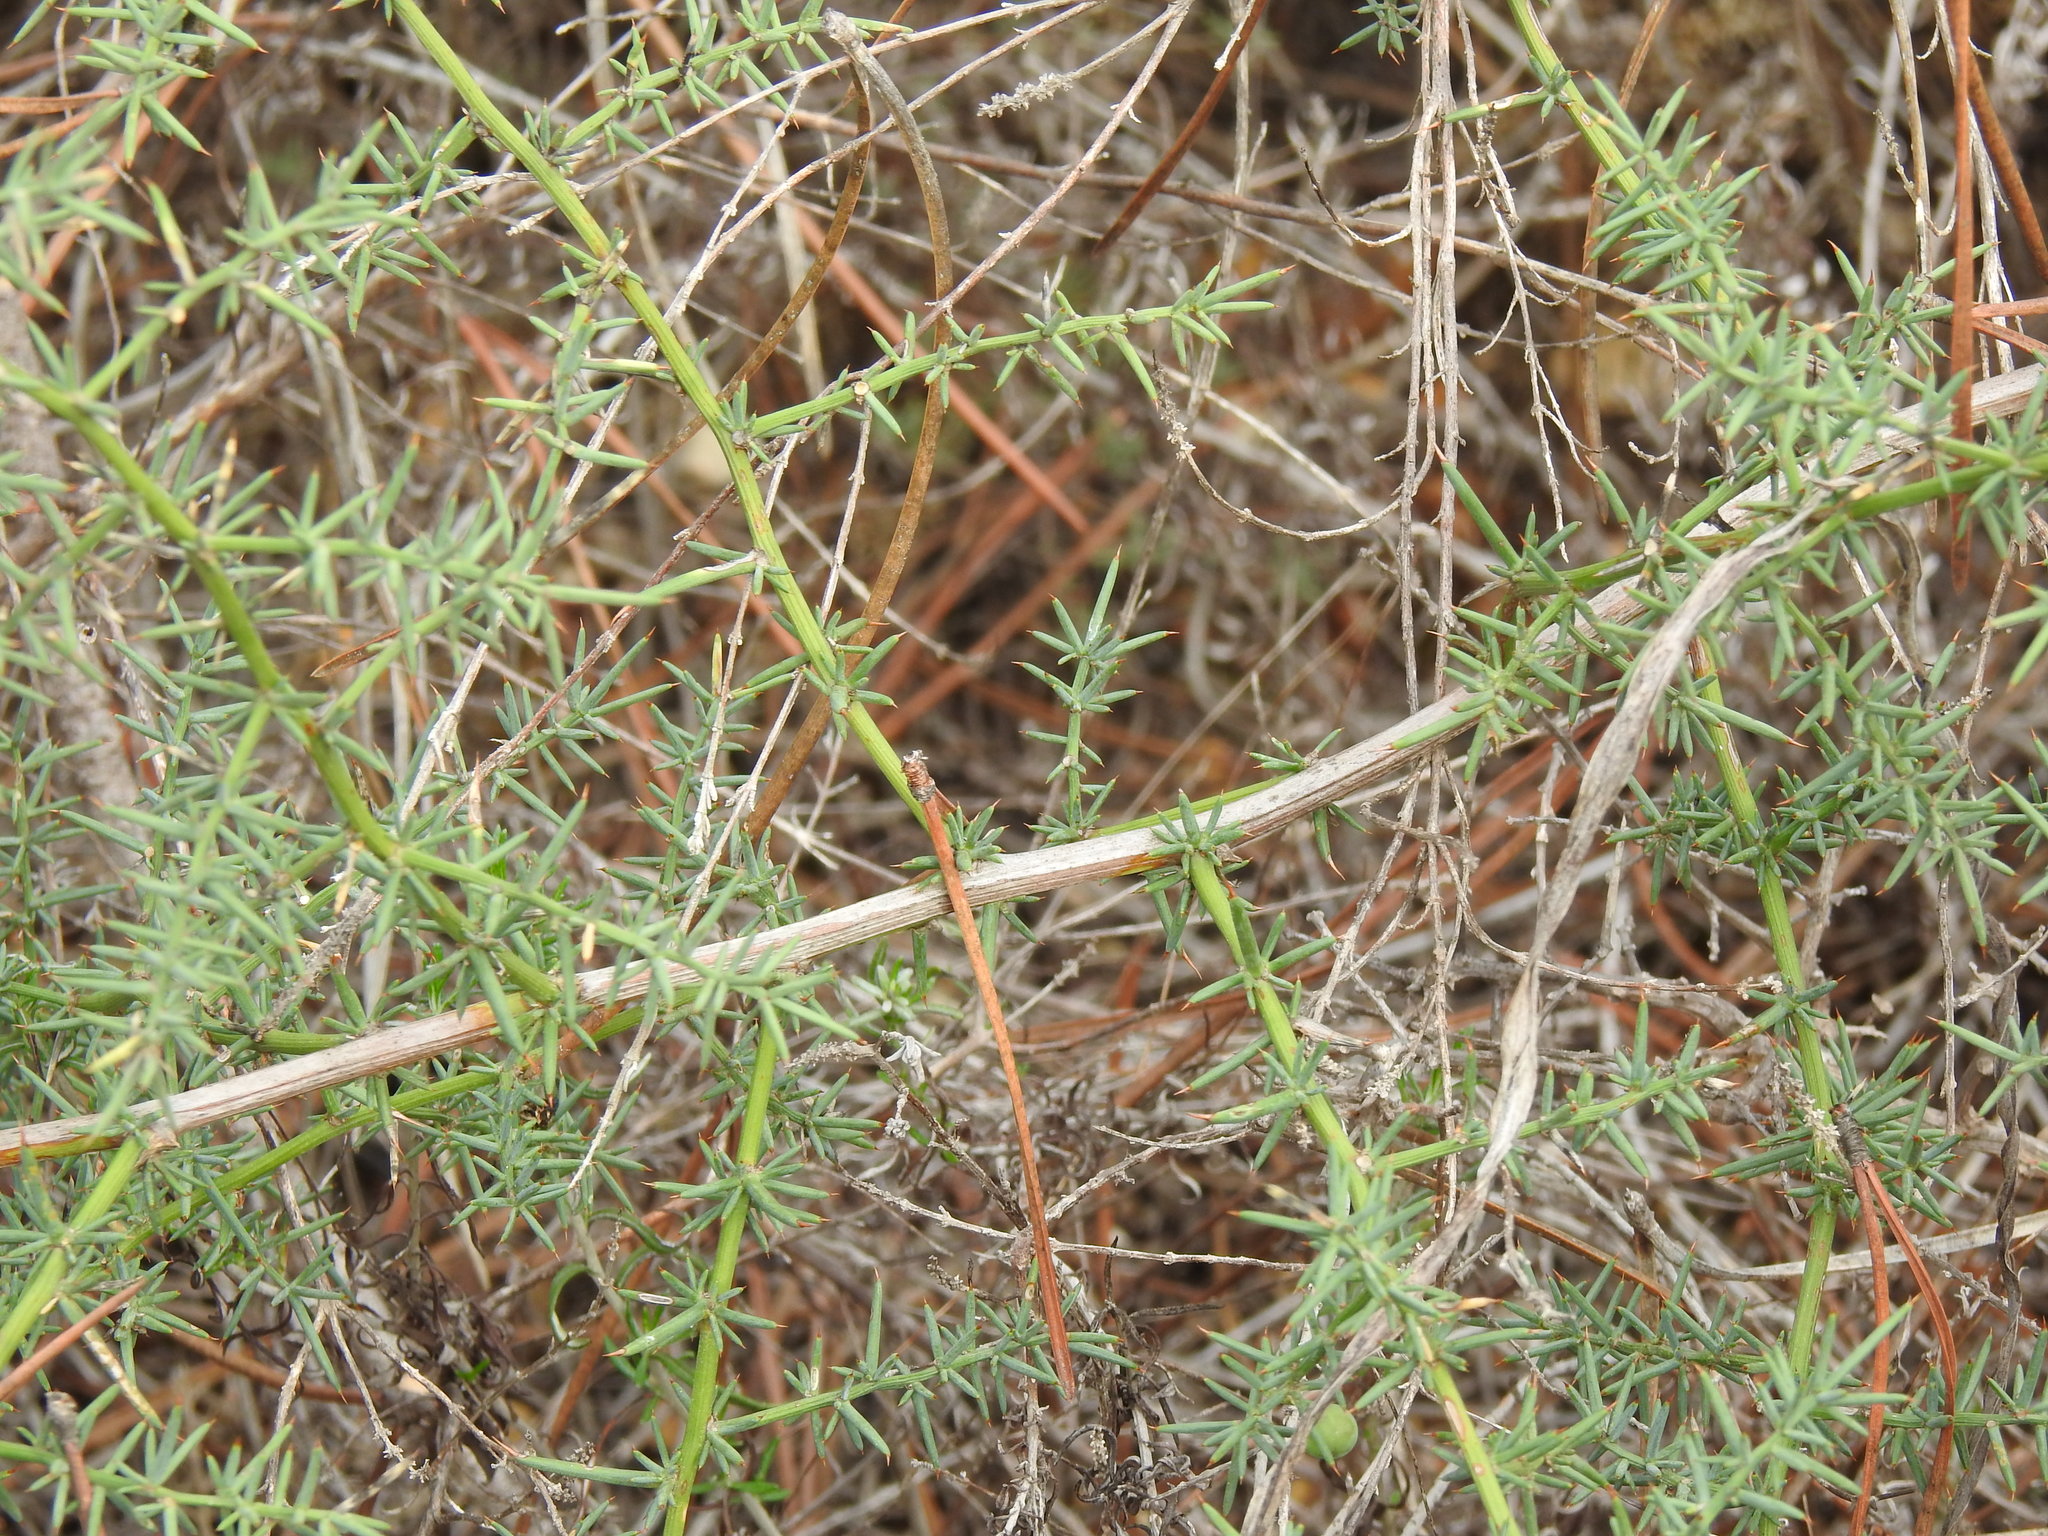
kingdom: Plantae
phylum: Tracheophyta
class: Liliopsida
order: Asparagales
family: Asparagaceae
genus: Asparagus
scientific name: Asparagus aphyllus
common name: Mediterranean asparagus
